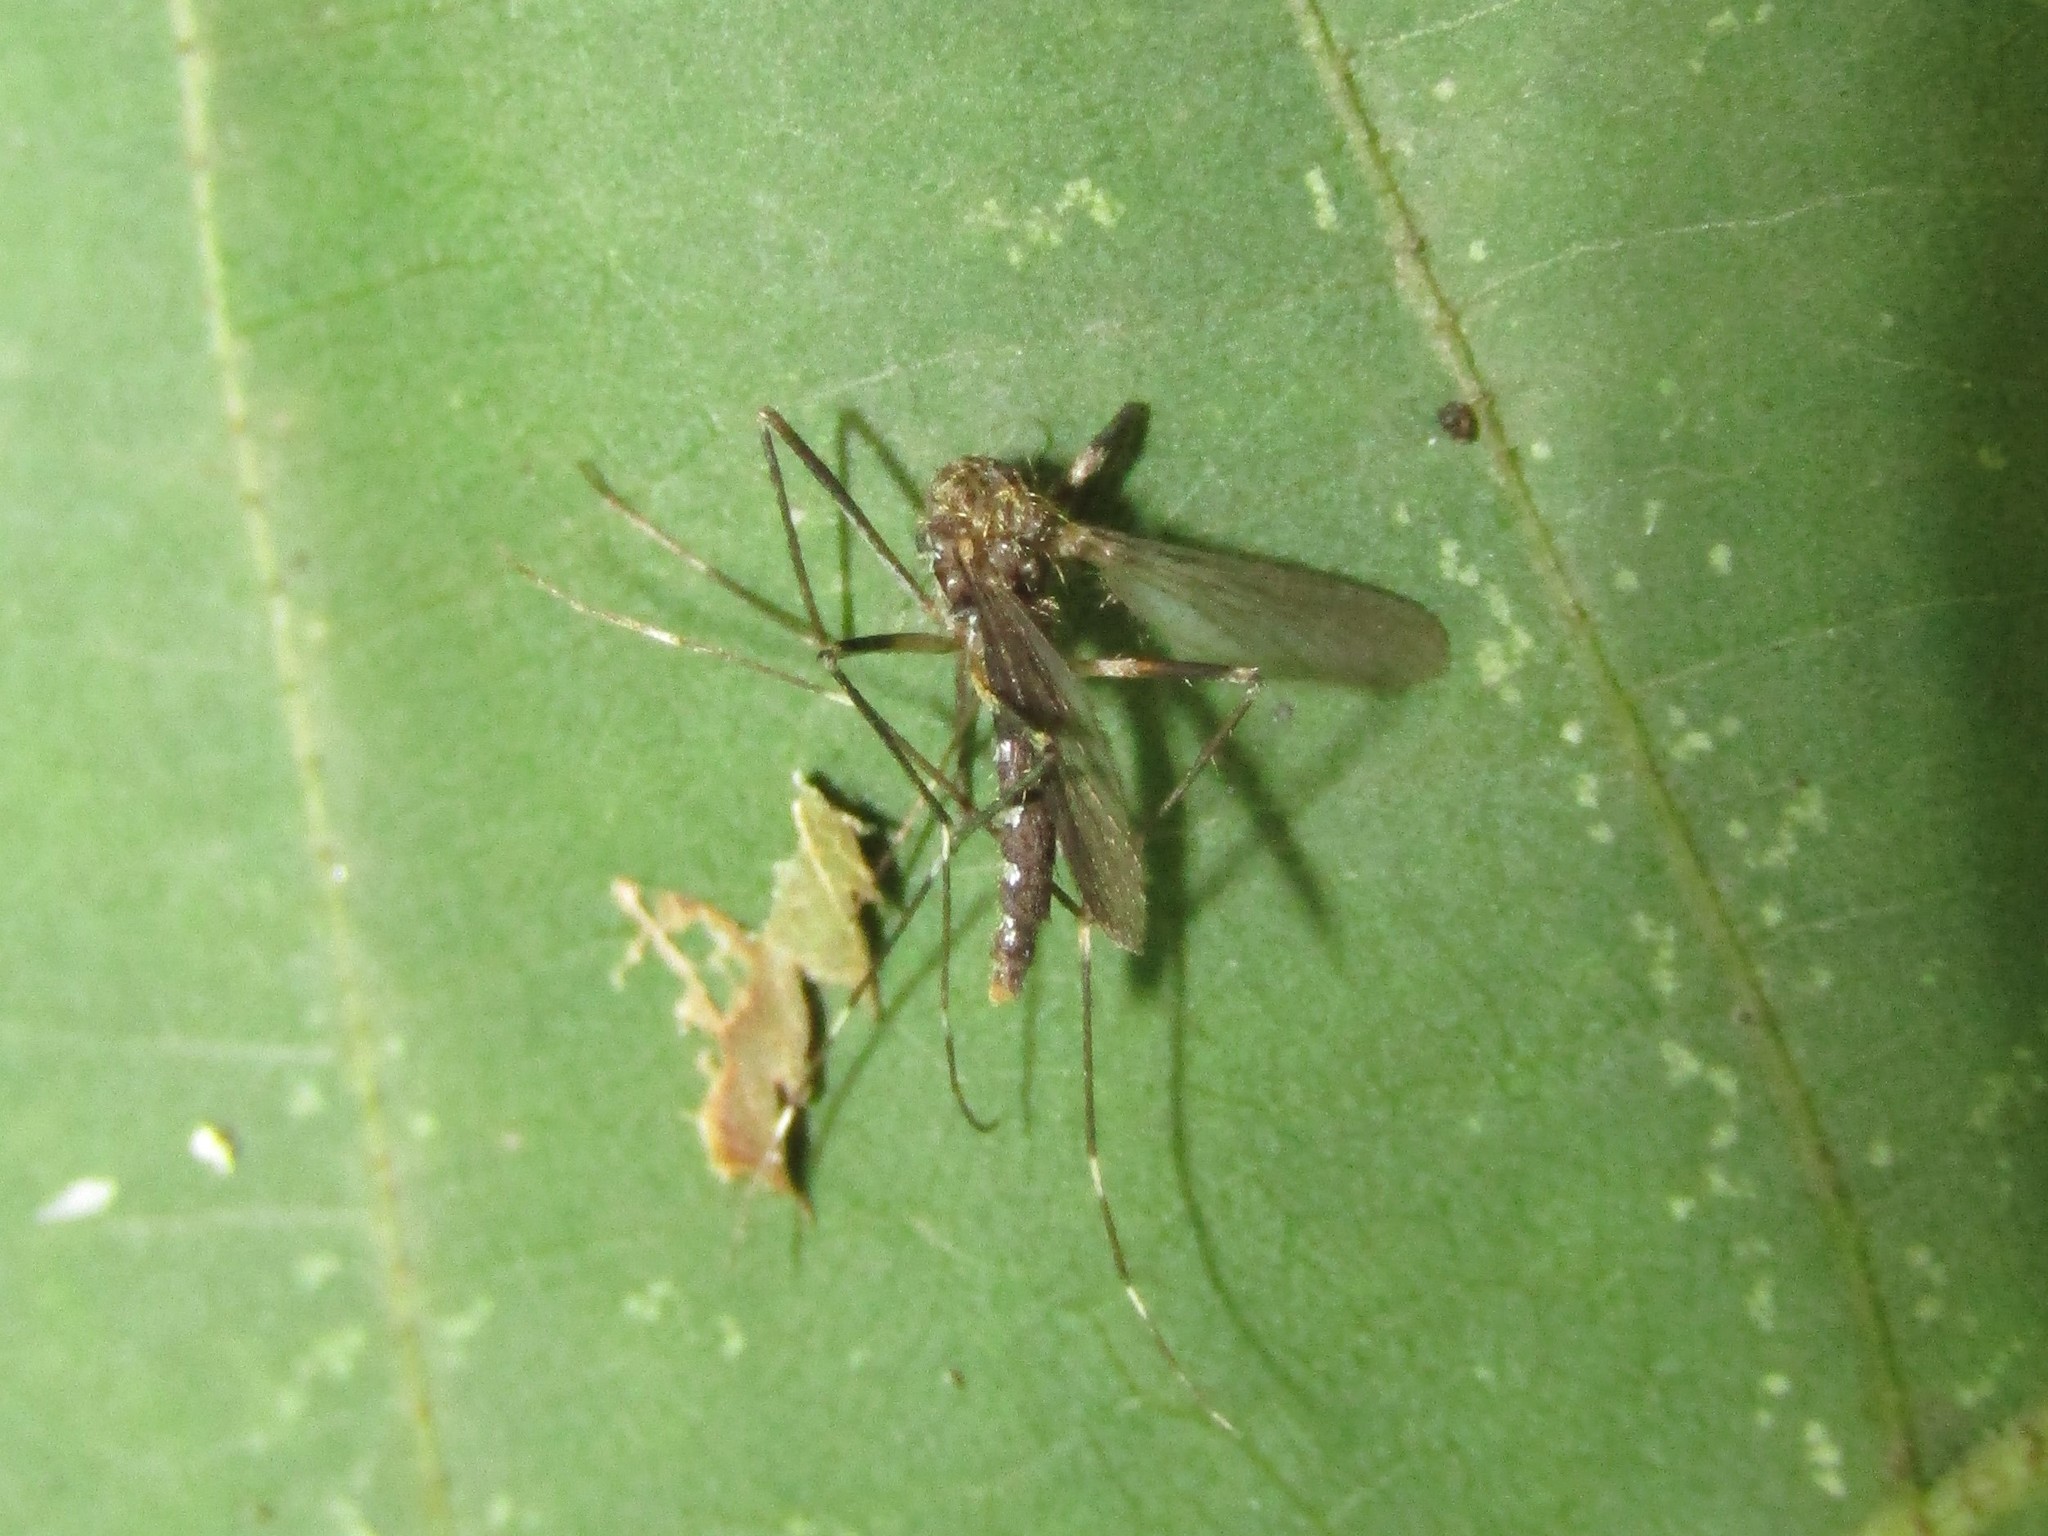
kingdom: Animalia
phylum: Arthropoda
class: Insecta
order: Diptera
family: Culicidae
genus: Aedes
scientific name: Aedes japonicus
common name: Asian bush mosquito
